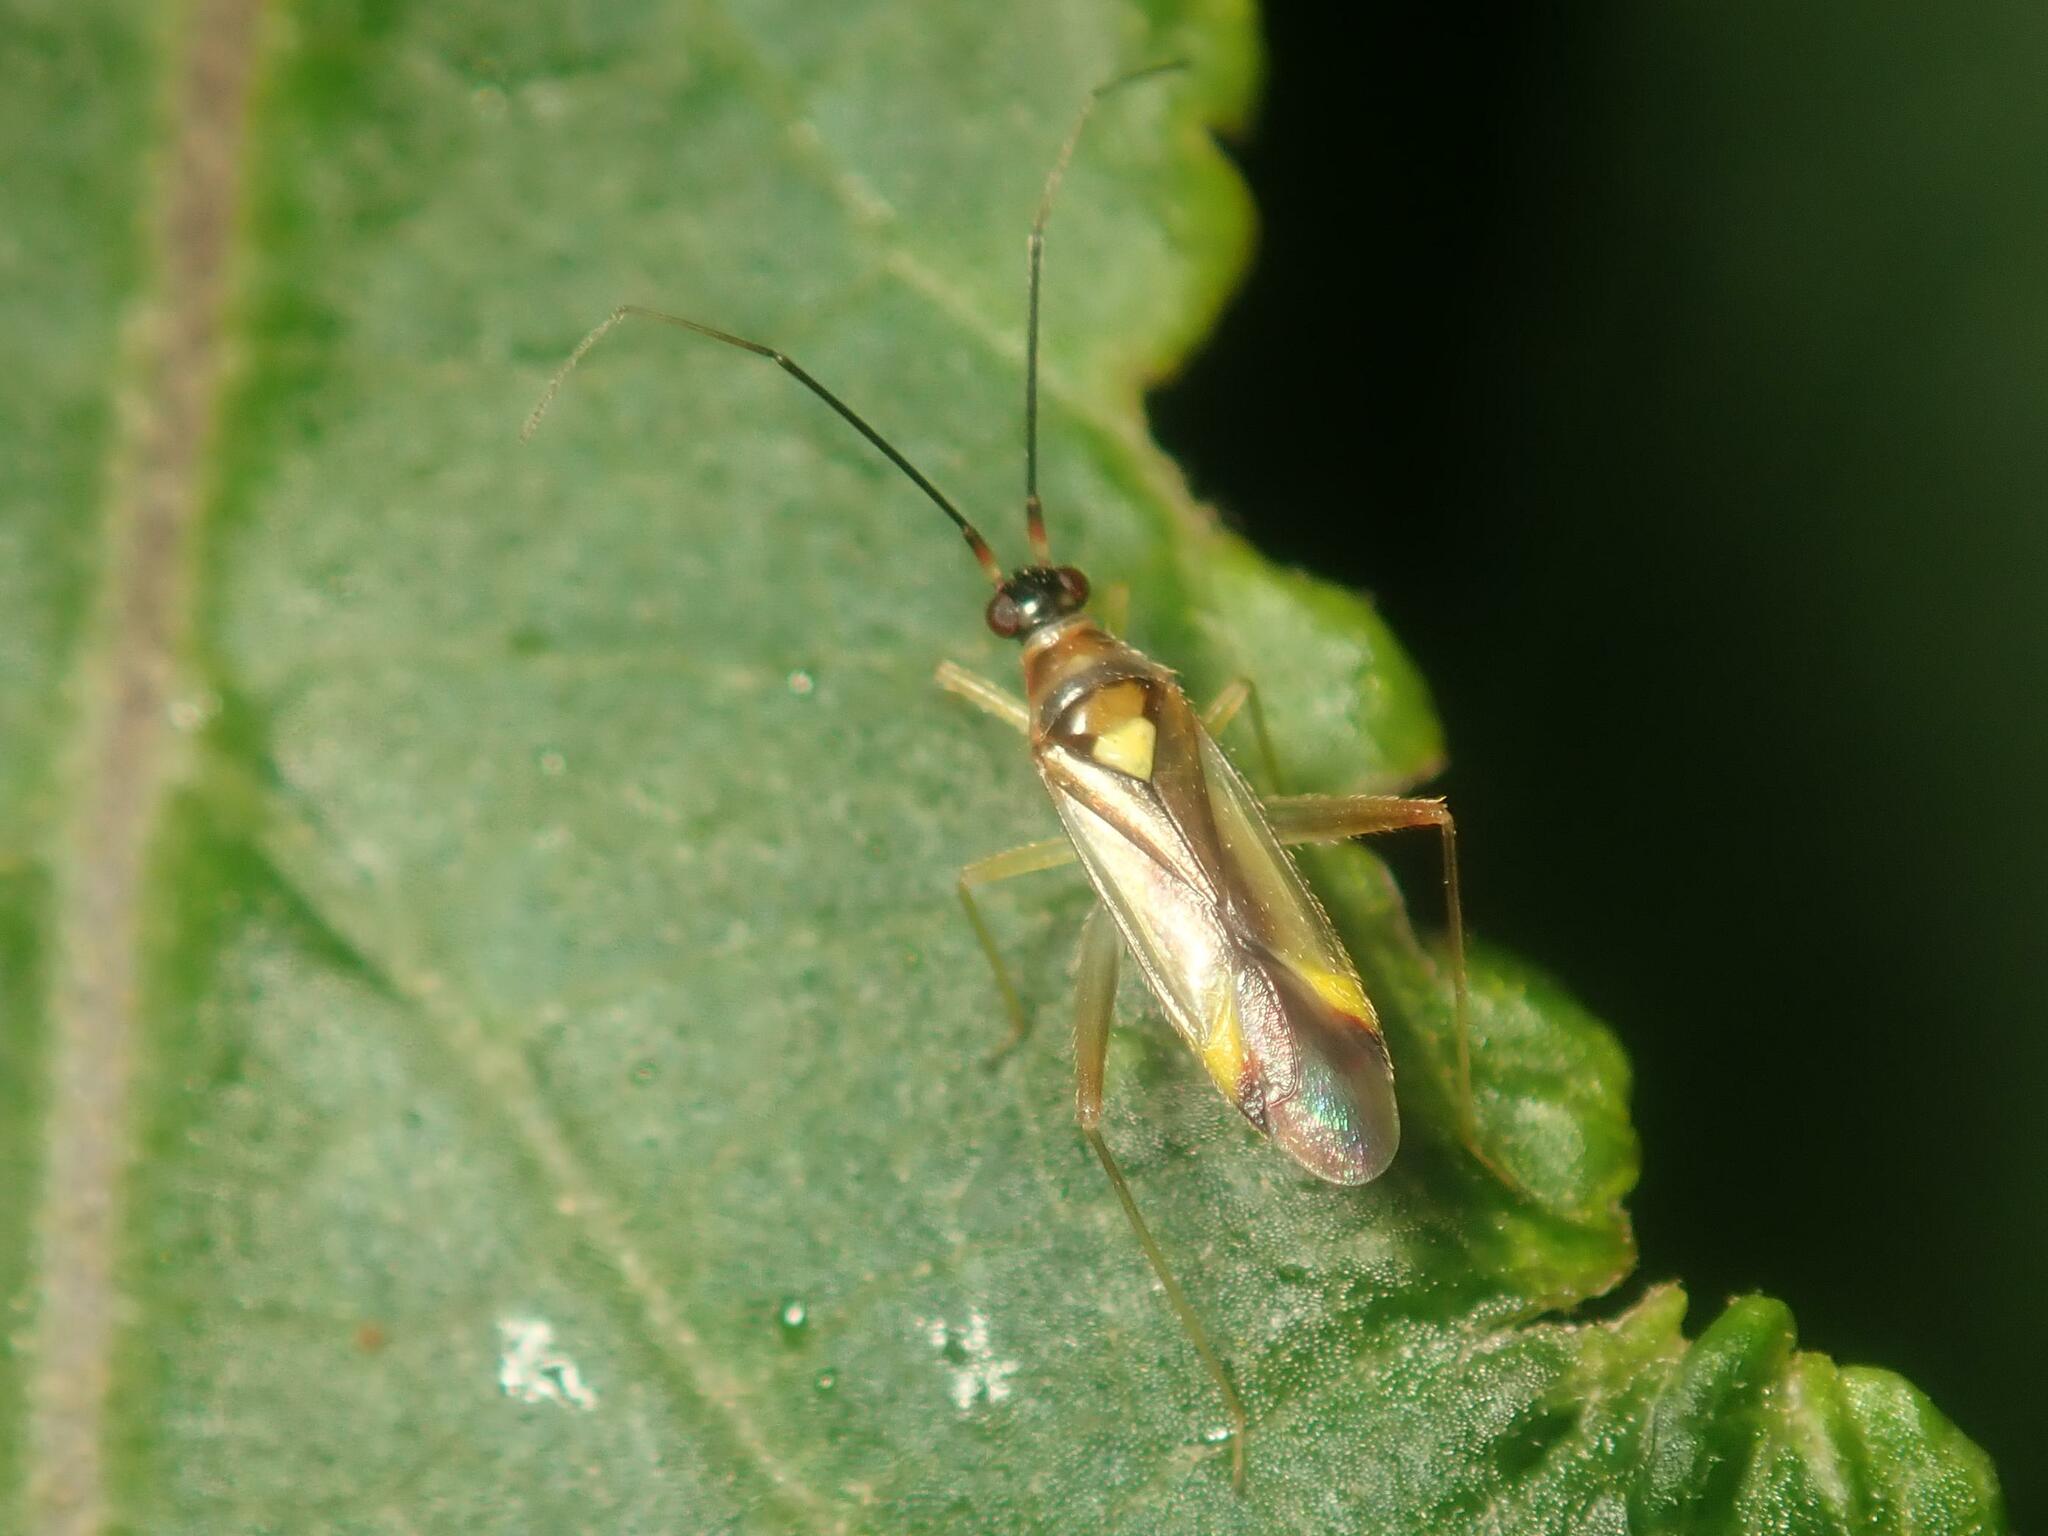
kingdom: Animalia
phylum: Arthropoda
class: Insecta
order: Hemiptera
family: Miridae
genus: Campyloneura
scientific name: Campyloneura virgula
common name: Predatory bug
